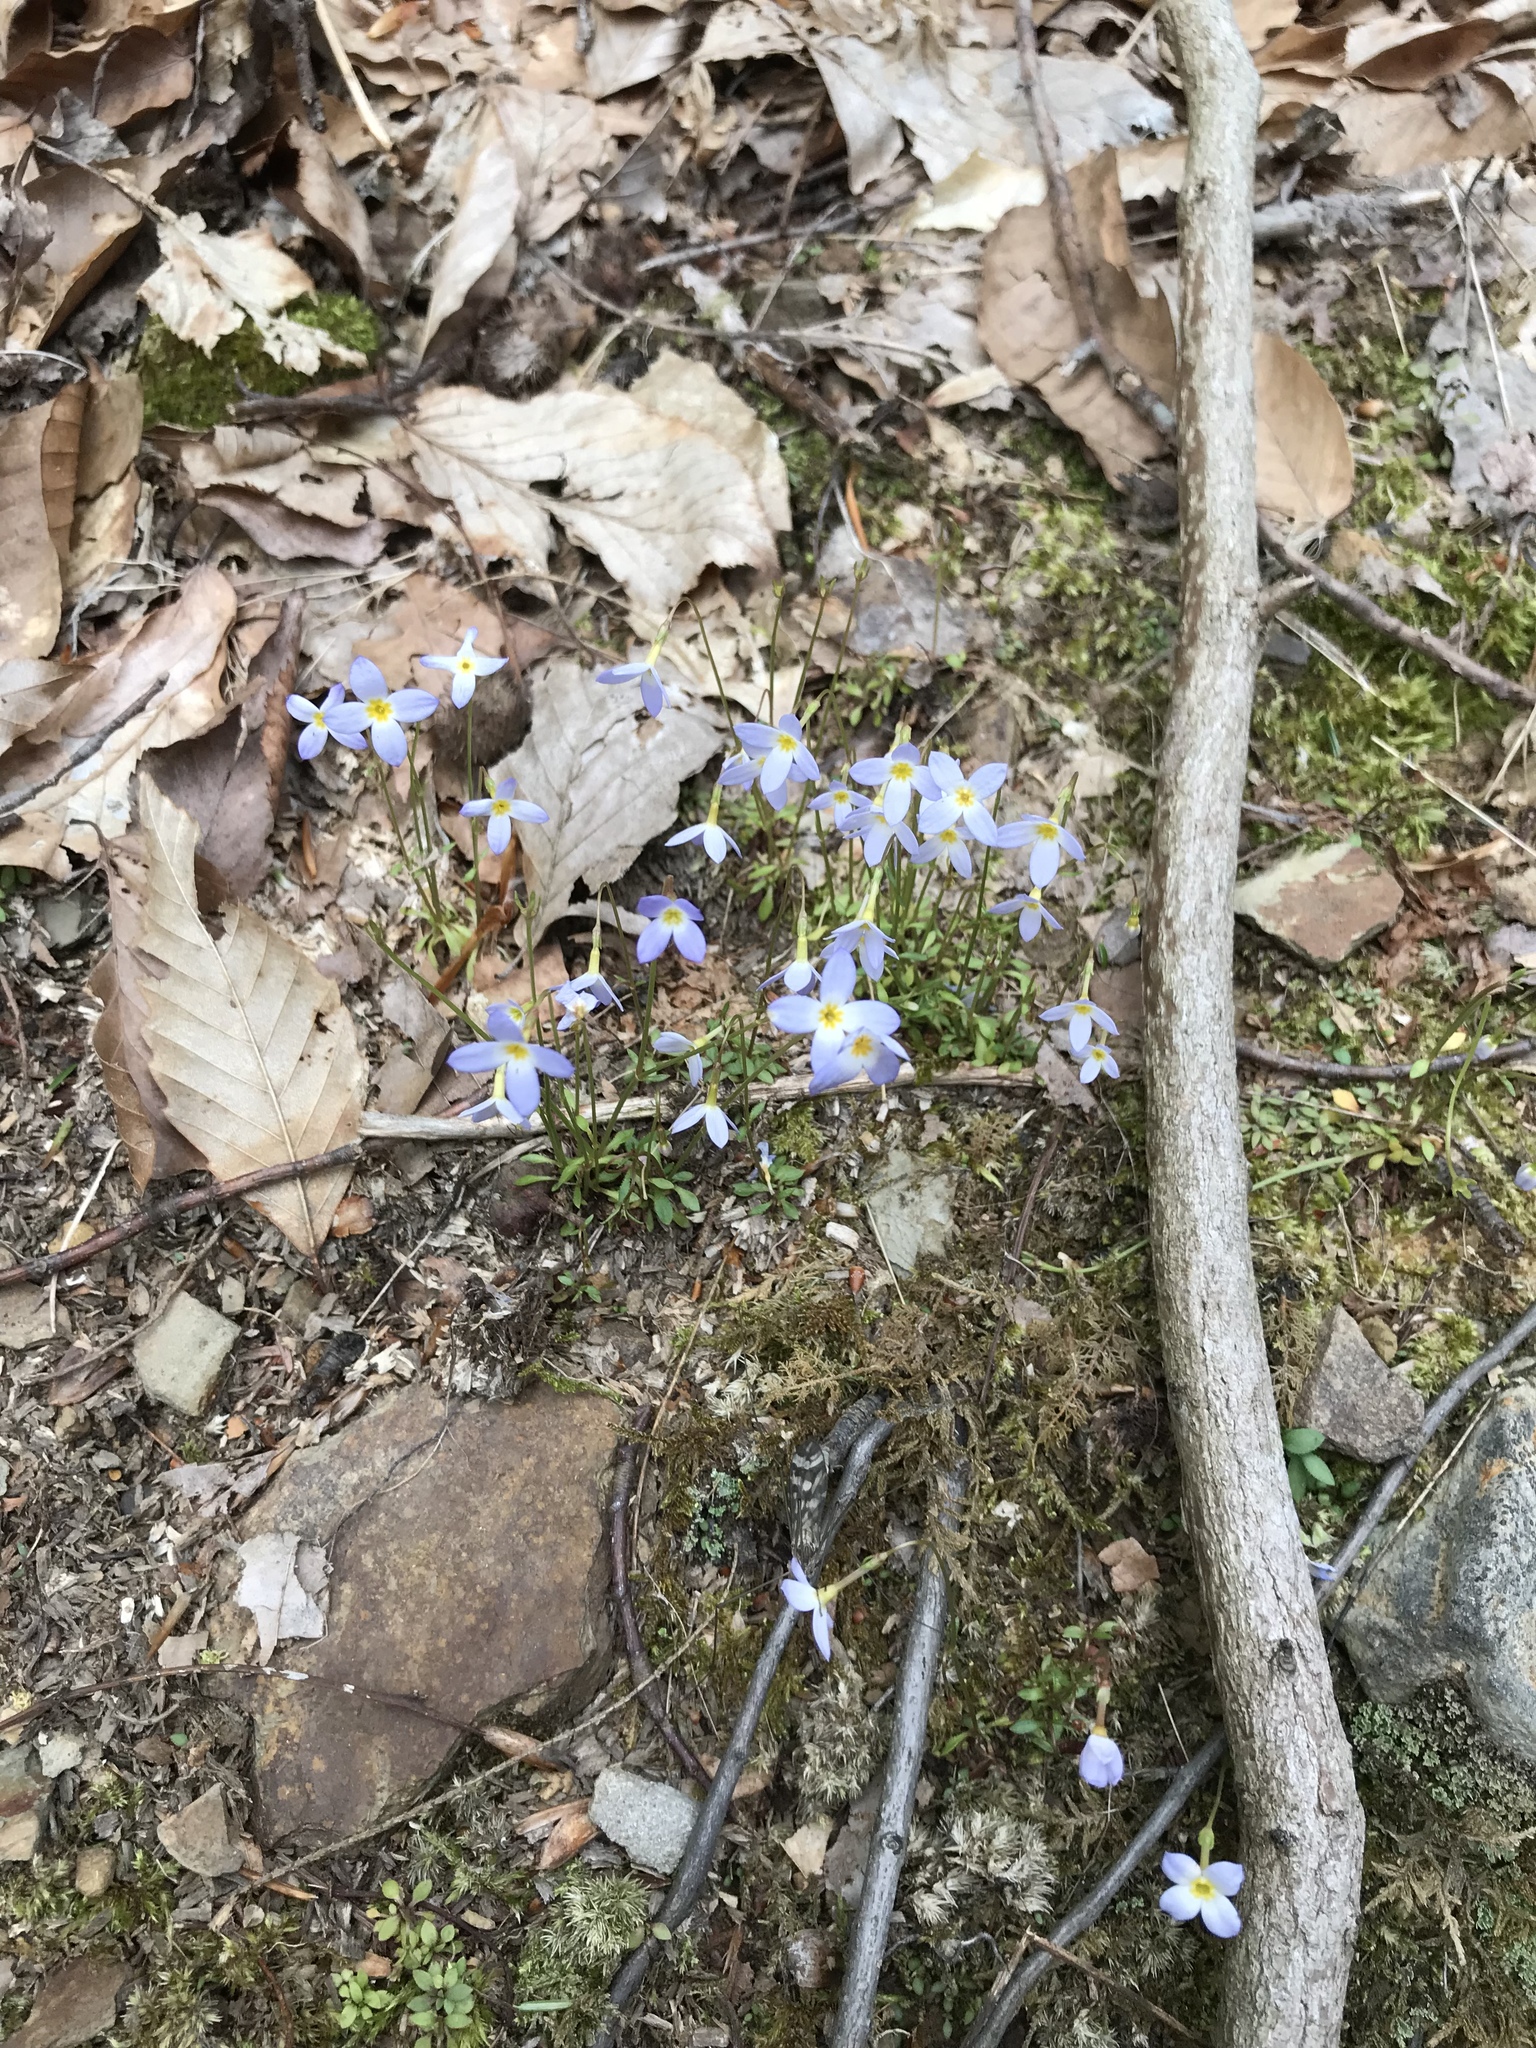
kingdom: Plantae
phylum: Tracheophyta
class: Magnoliopsida
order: Gentianales
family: Rubiaceae
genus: Houstonia
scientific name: Houstonia caerulea
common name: Bluets
